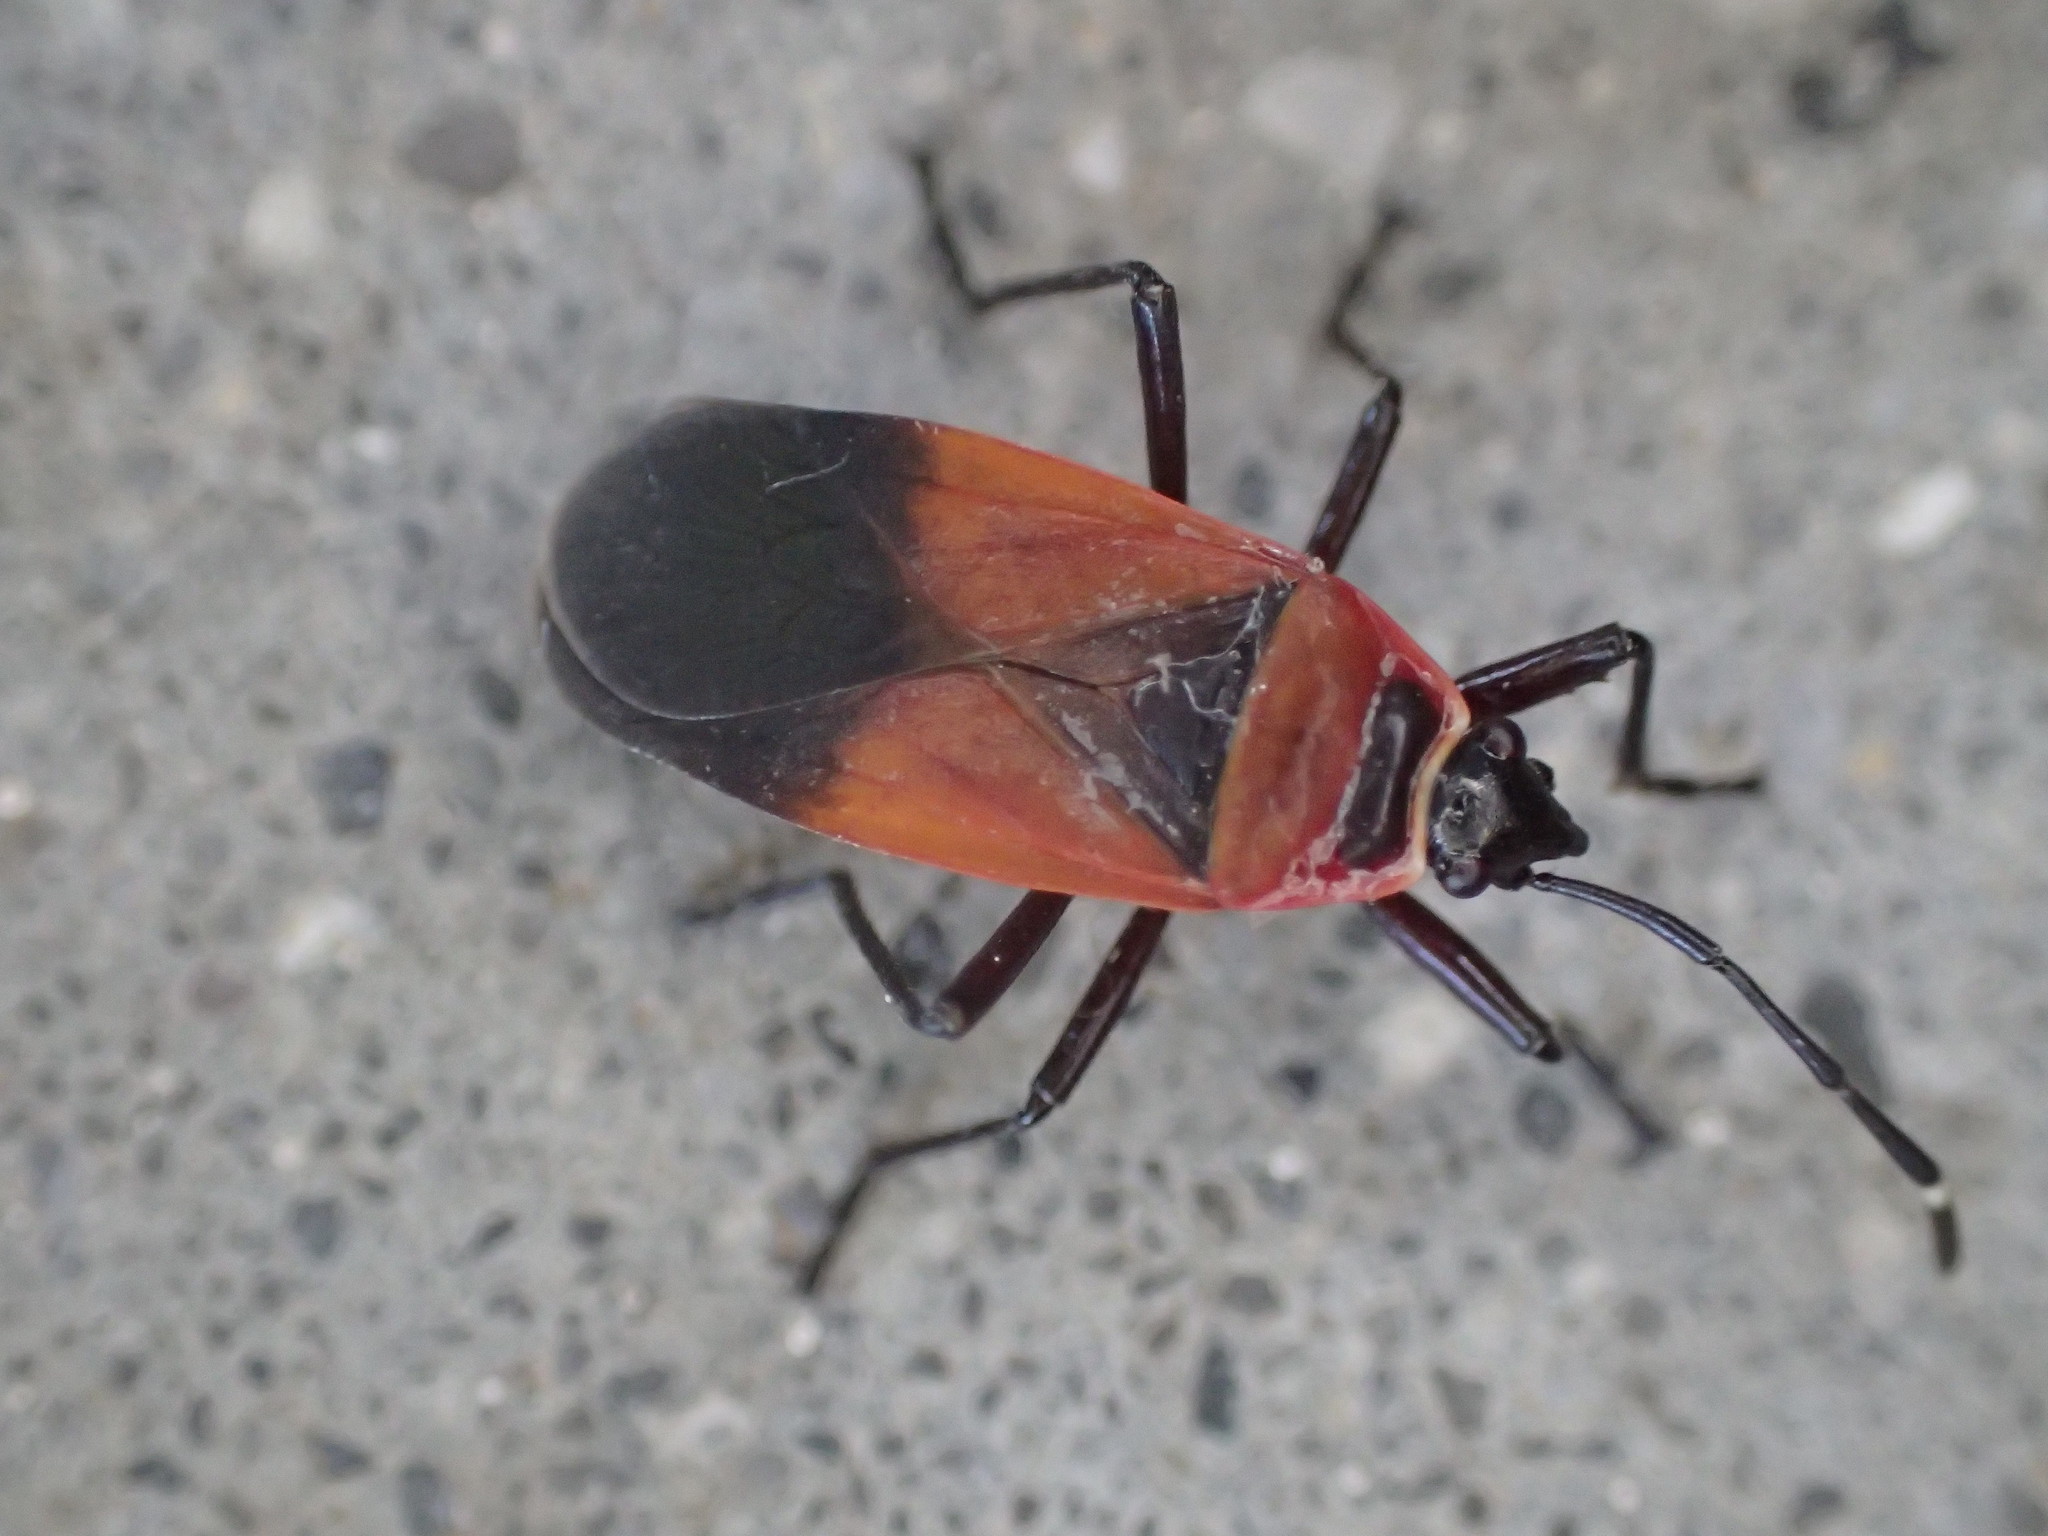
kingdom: Animalia
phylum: Arthropoda
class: Insecta
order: Hemiptera
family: Pyrrhocoridae
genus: Dindymus
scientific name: Dindymus
